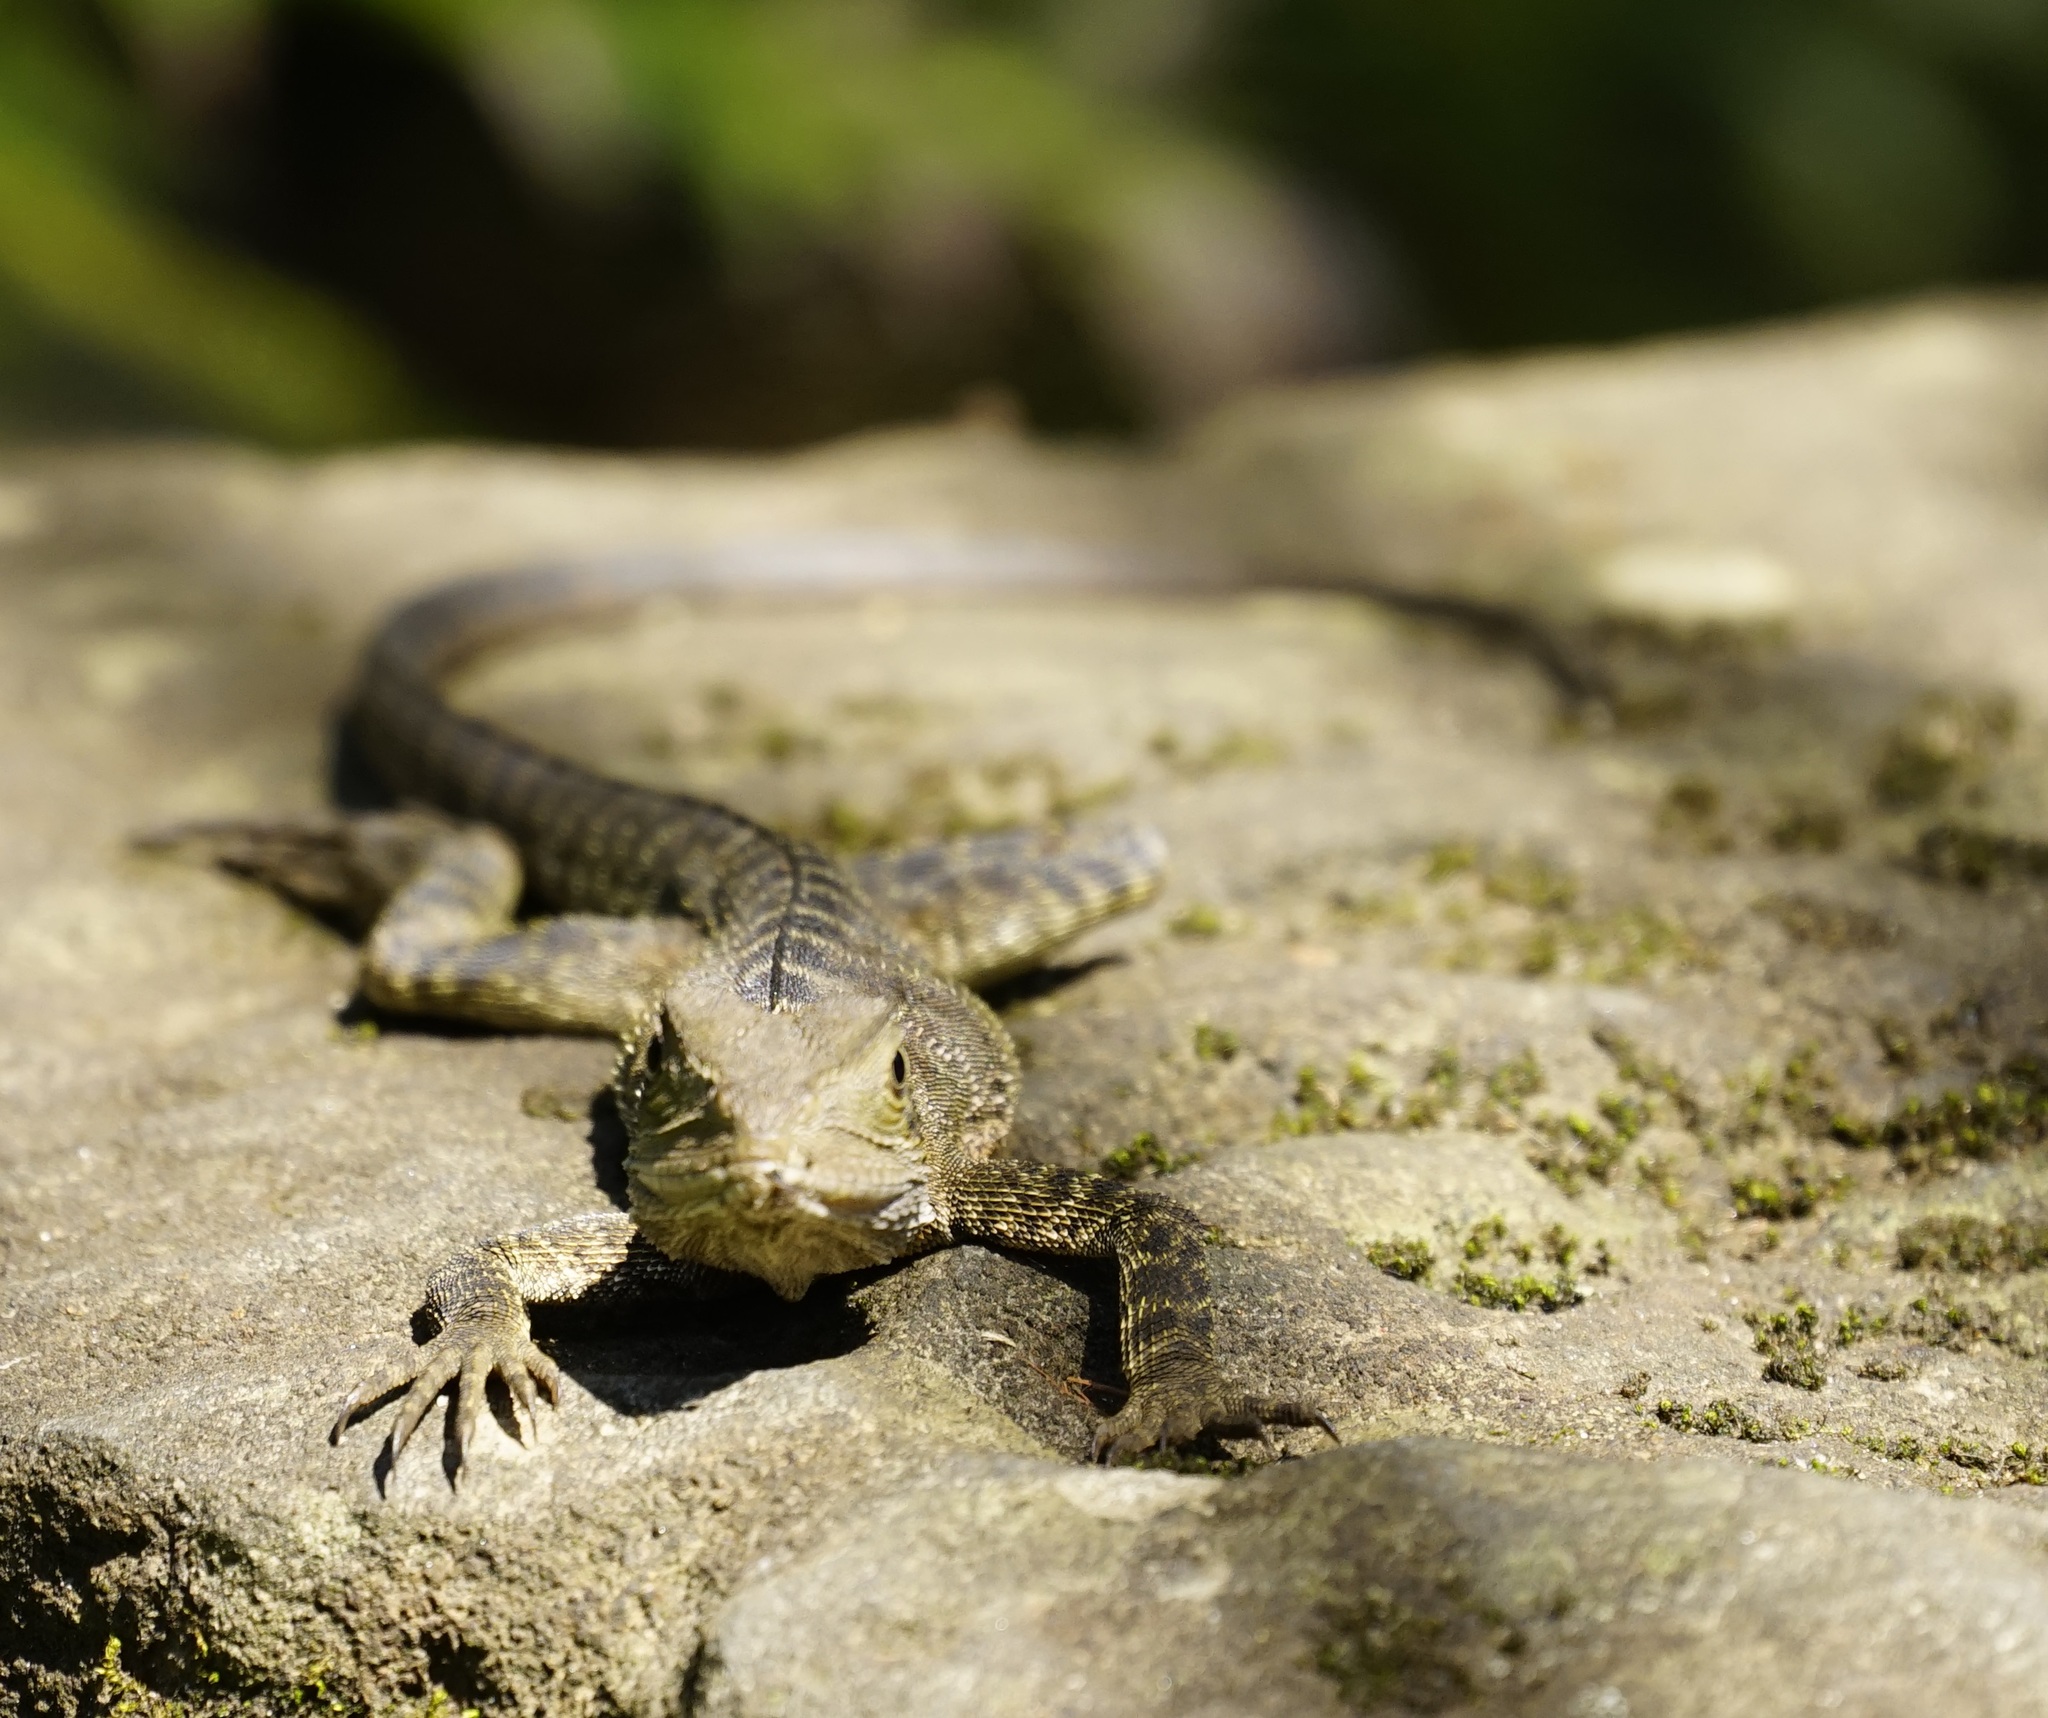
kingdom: Animalia
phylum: Chordata
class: Squamata
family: Agamidae
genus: Intellagama
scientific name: Intellagama lesueurii
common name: Eastern water dragon
